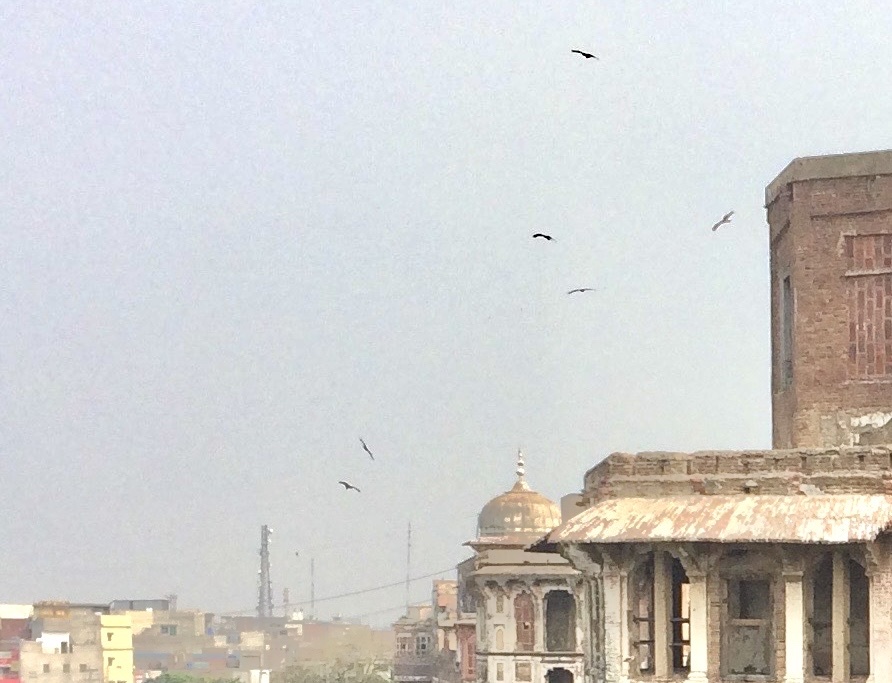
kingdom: Animalia
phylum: Chordata
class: Aves
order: Accipitriformes
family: Accipitridae
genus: Milvus
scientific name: Milvus migrans
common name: Black kite
